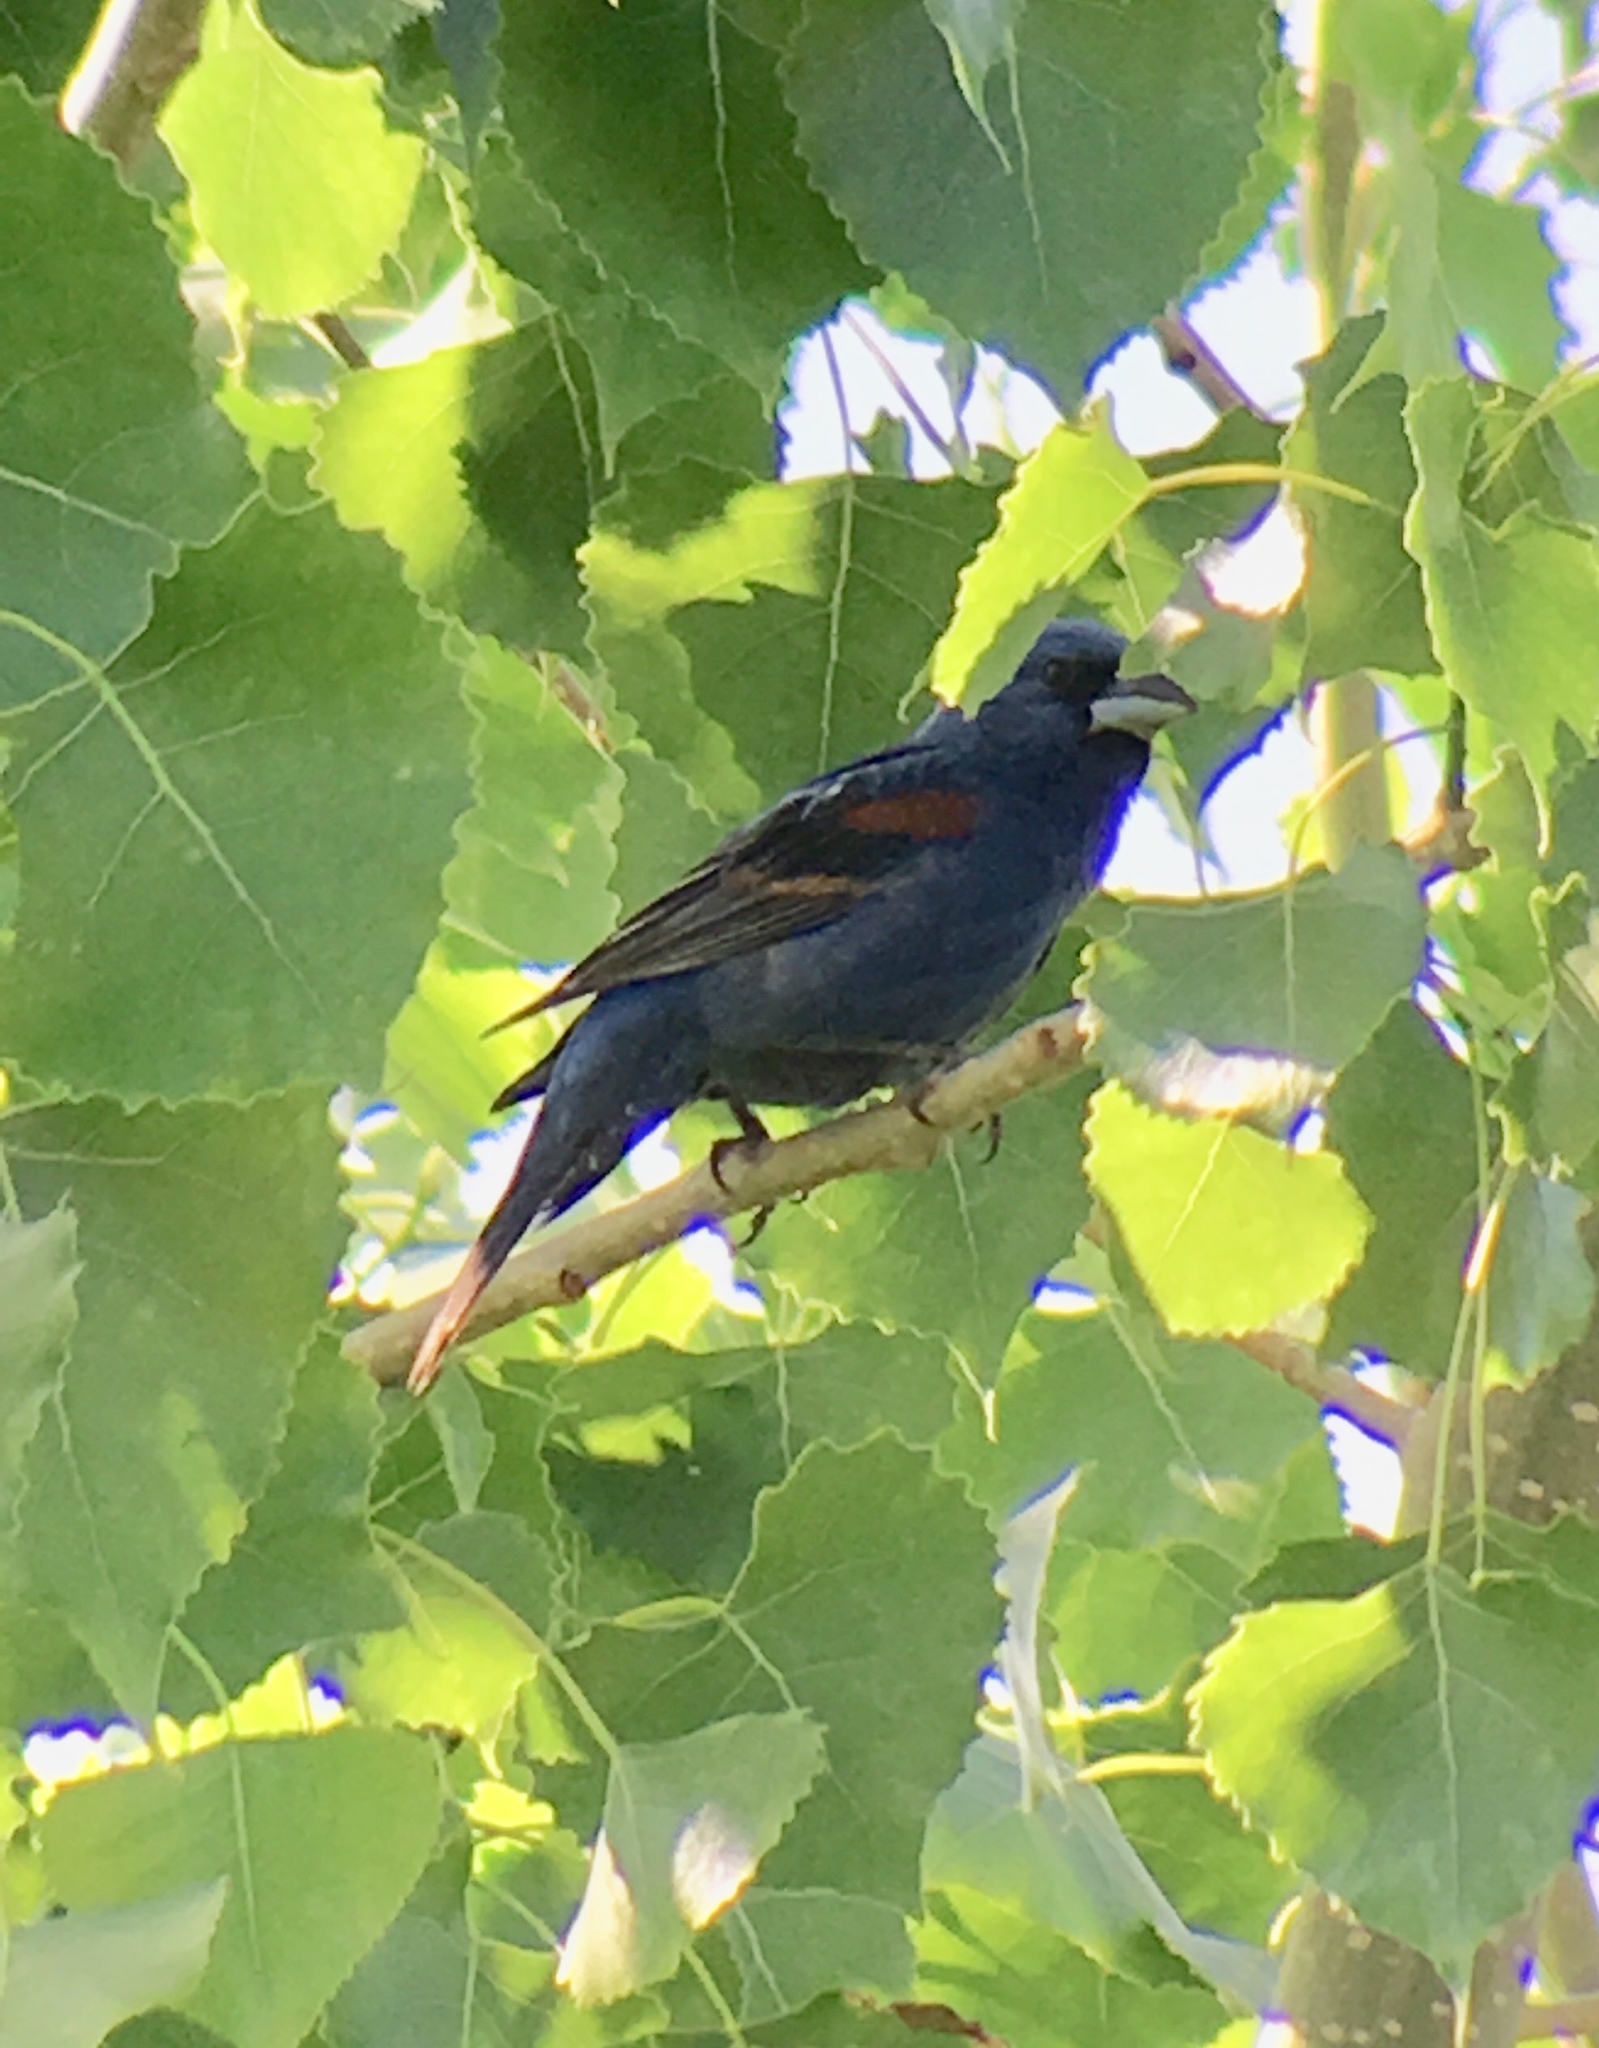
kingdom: Animalia
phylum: Chordata
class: Aves
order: Passeriformes
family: Cardinalidae
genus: Passerina
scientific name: Passerina caerulea
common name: Blue grosbeak
